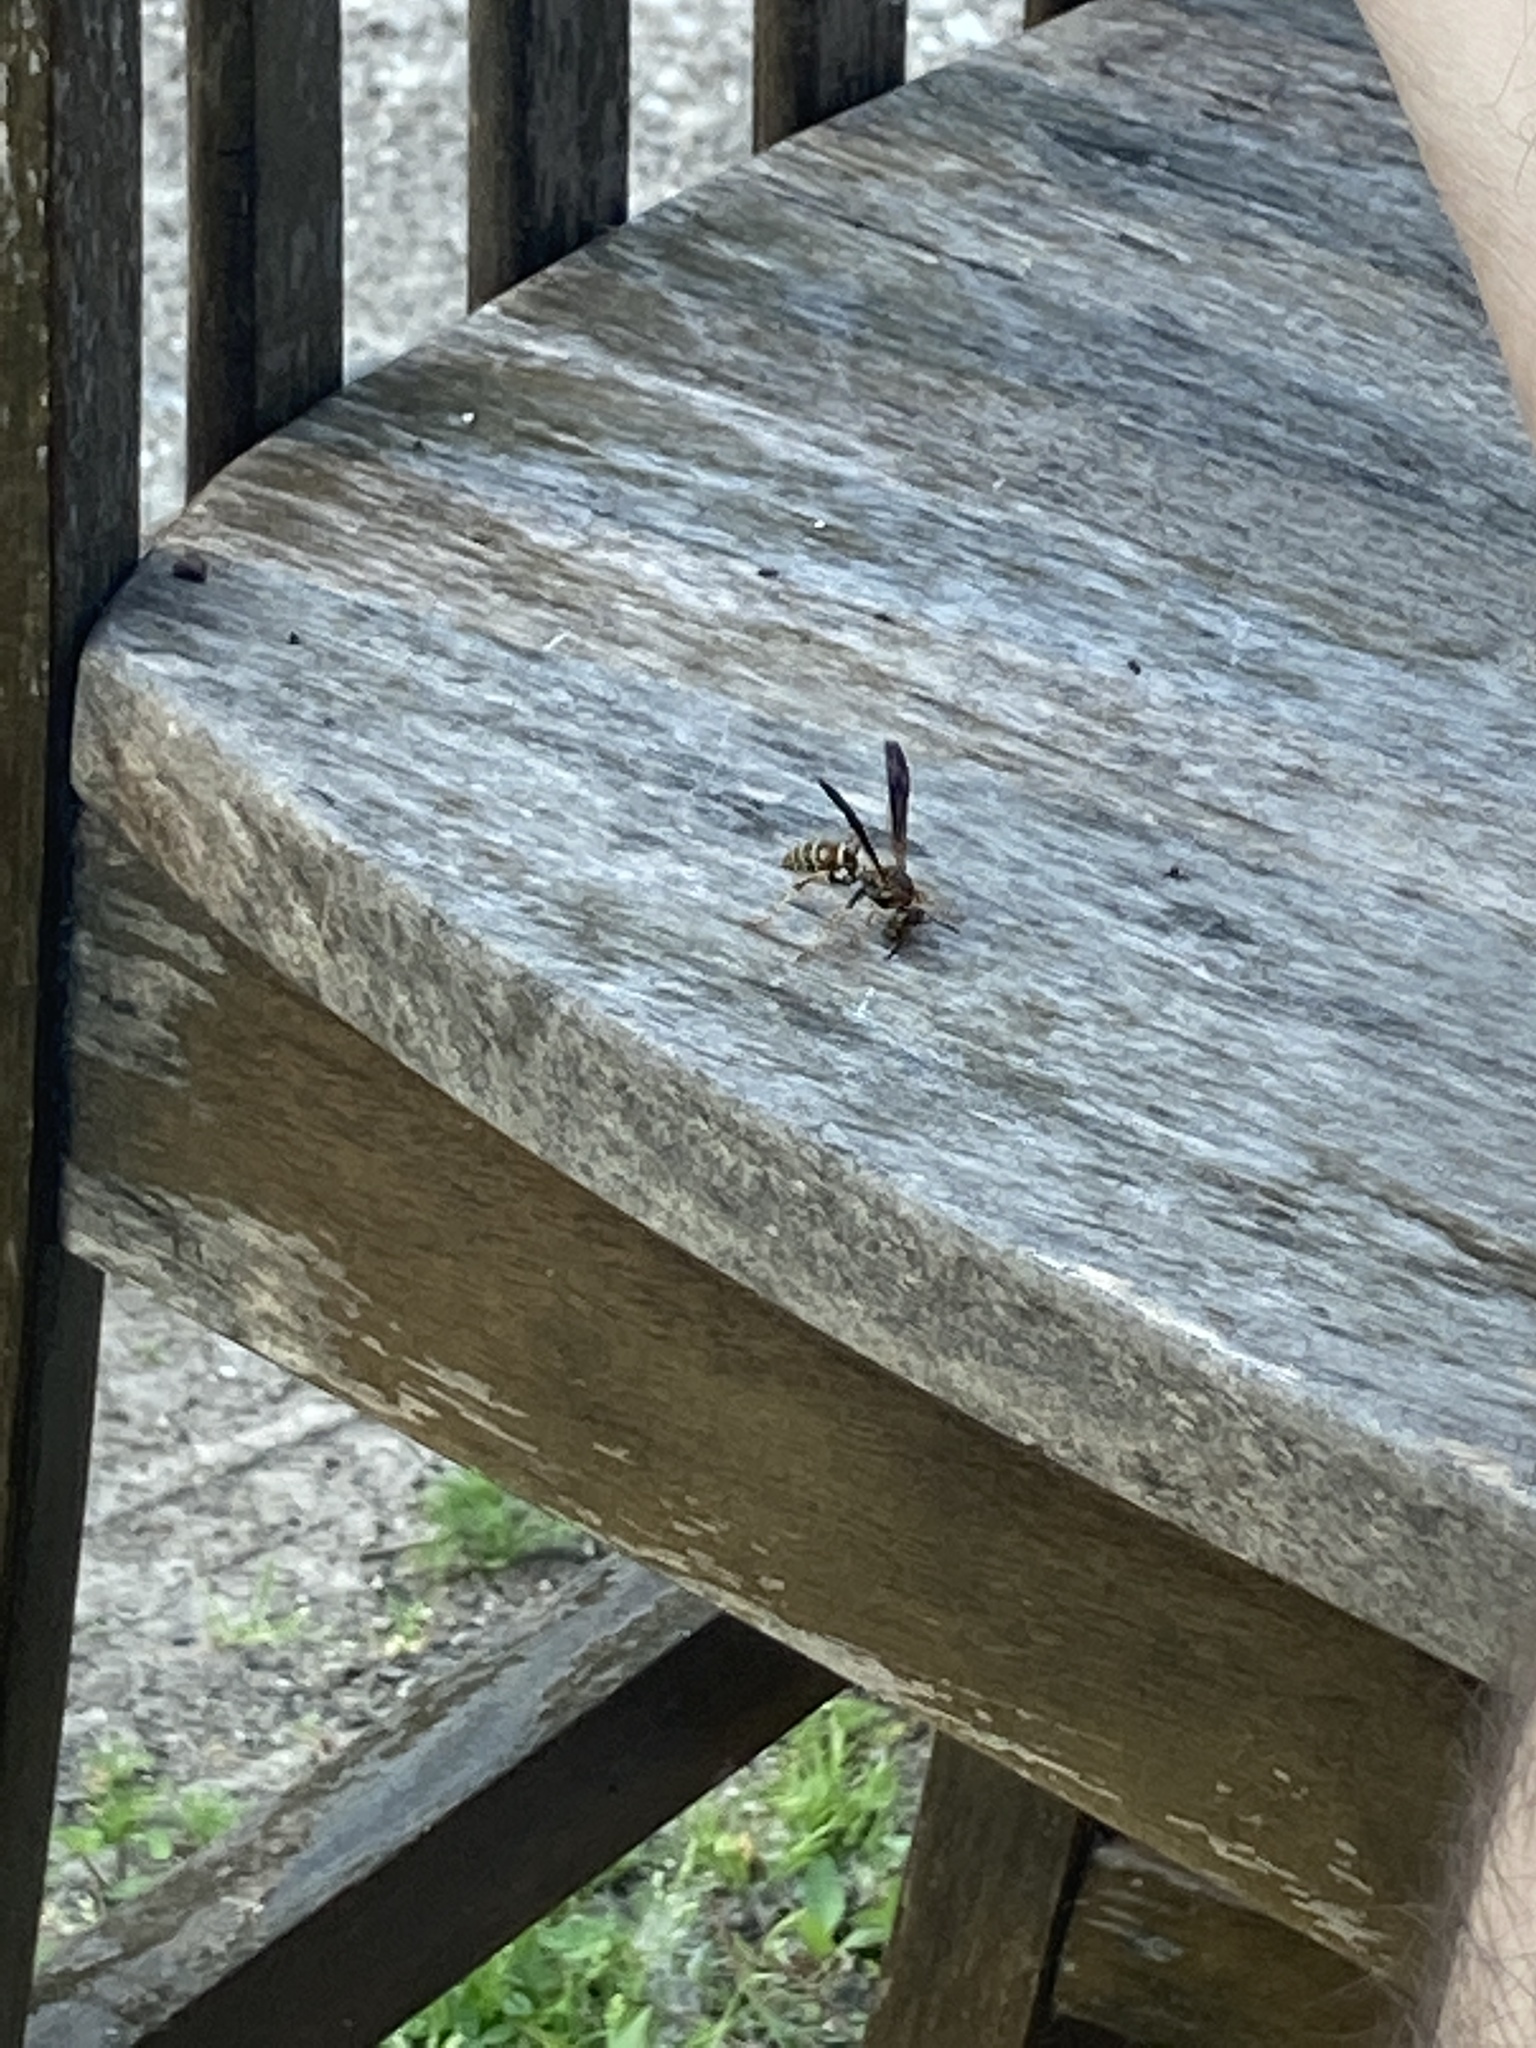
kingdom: Animalia
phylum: Arthropoda
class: Insecta
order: Hymenoptera
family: Eumenidae
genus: Polistes
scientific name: Polistes fuscatus
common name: Dark paper wasp
